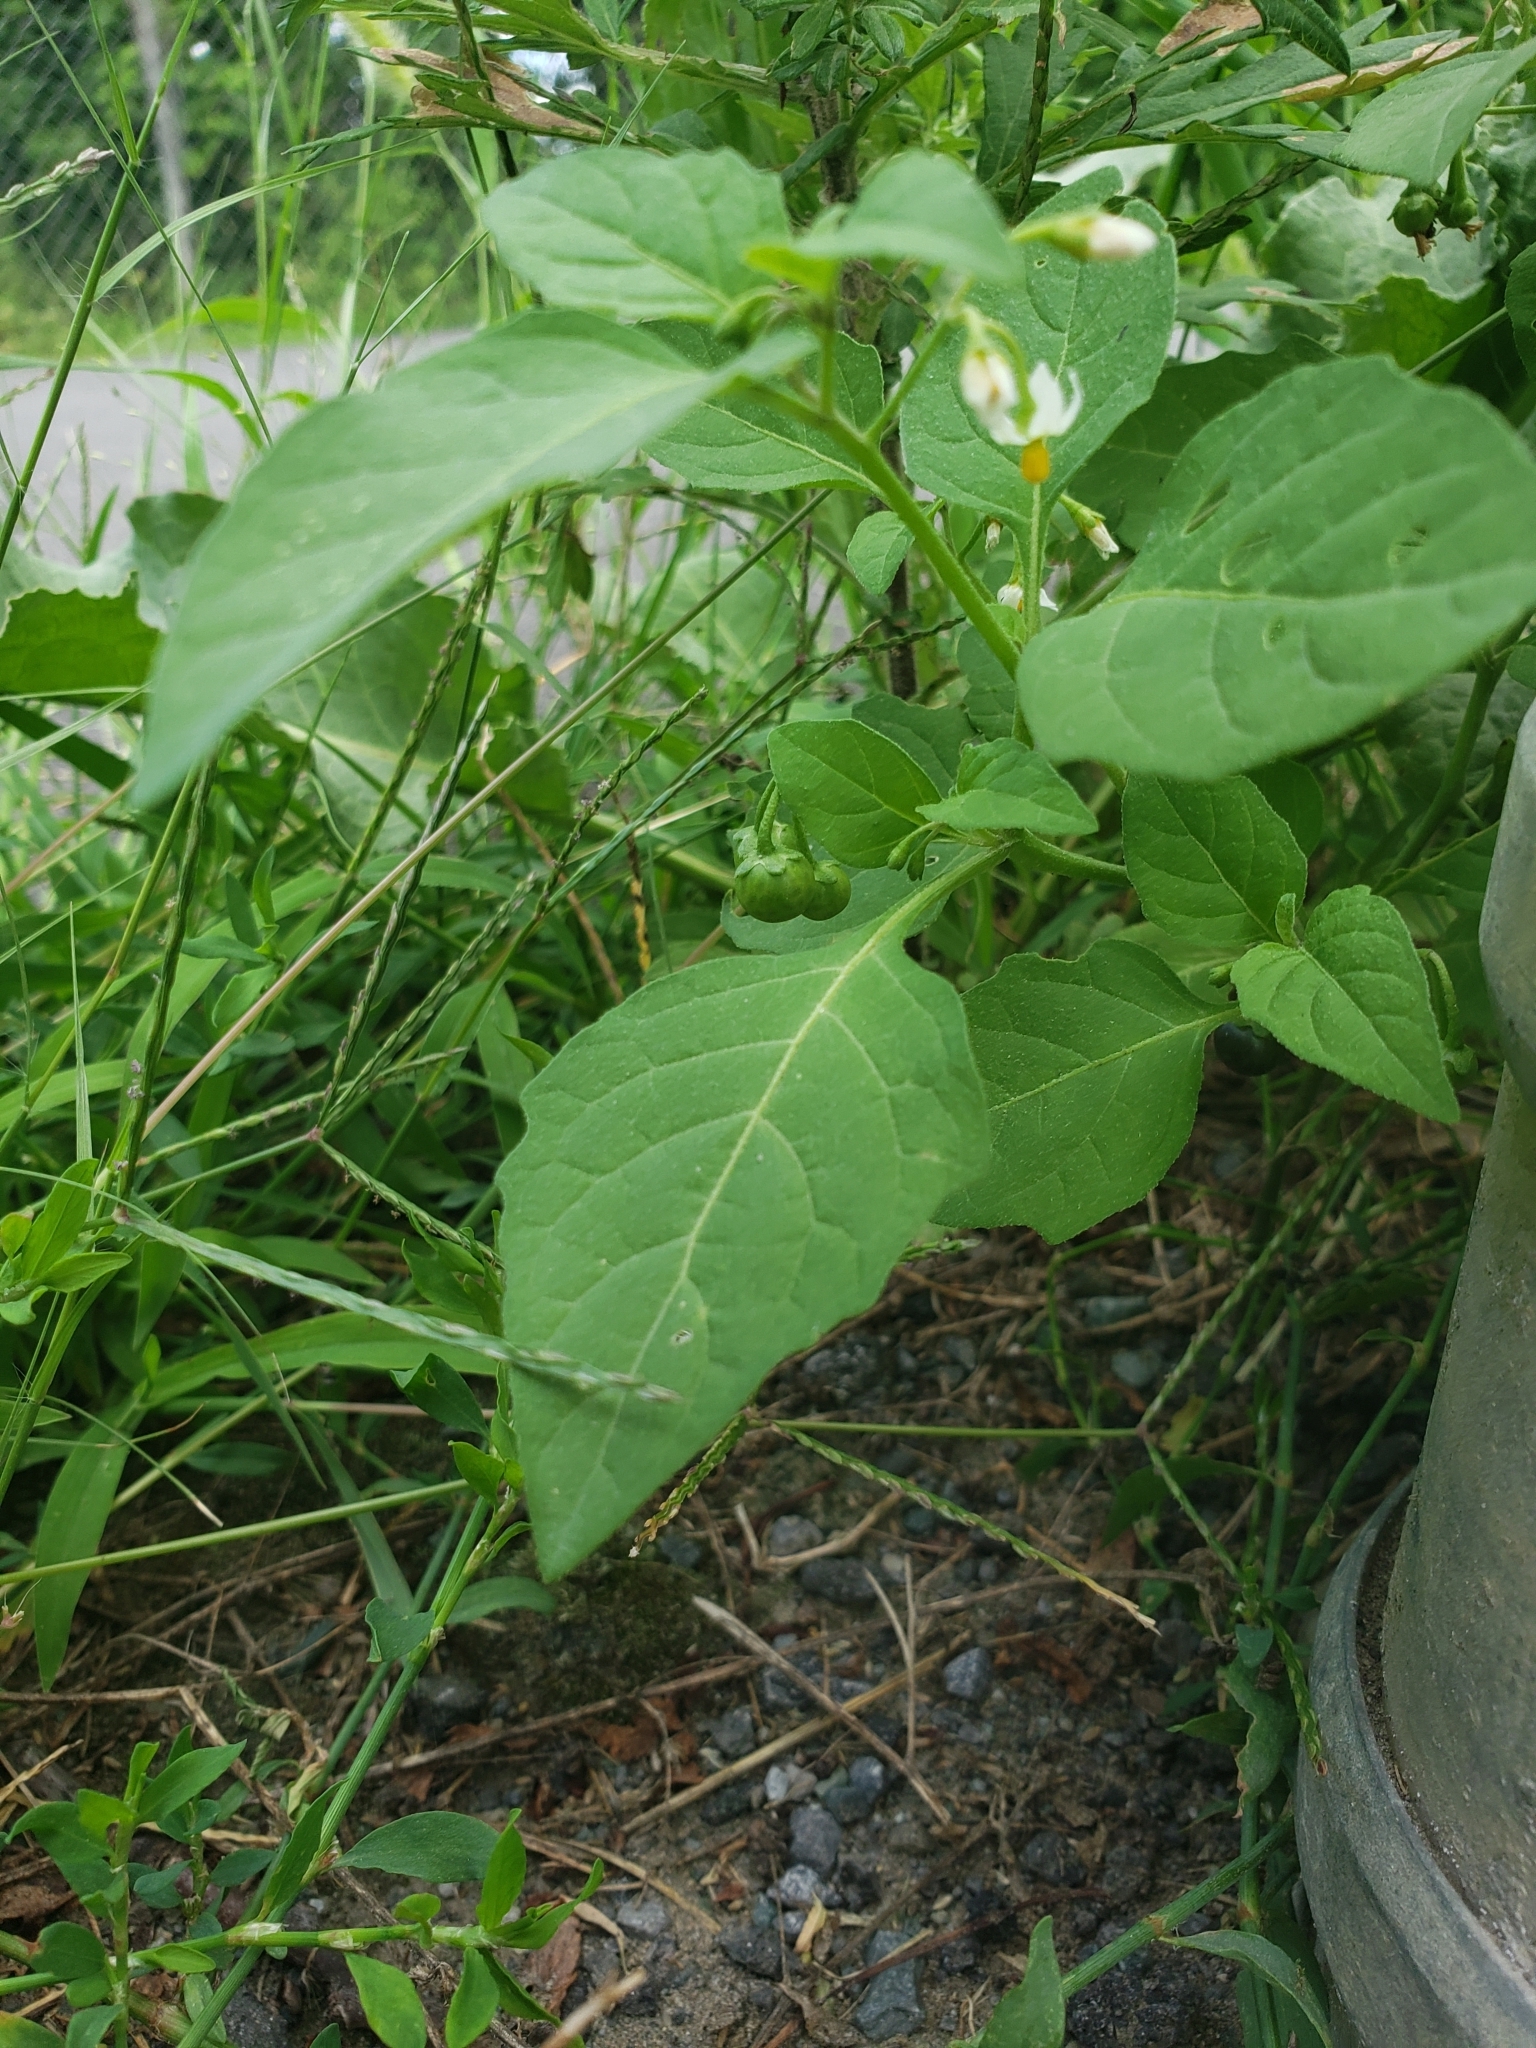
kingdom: Plantae
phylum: Tracheophyta
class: Magnoliopsida
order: Solanales
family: Solanaceae
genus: Solanum
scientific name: Solanum emulans
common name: Eastern black nightshade
